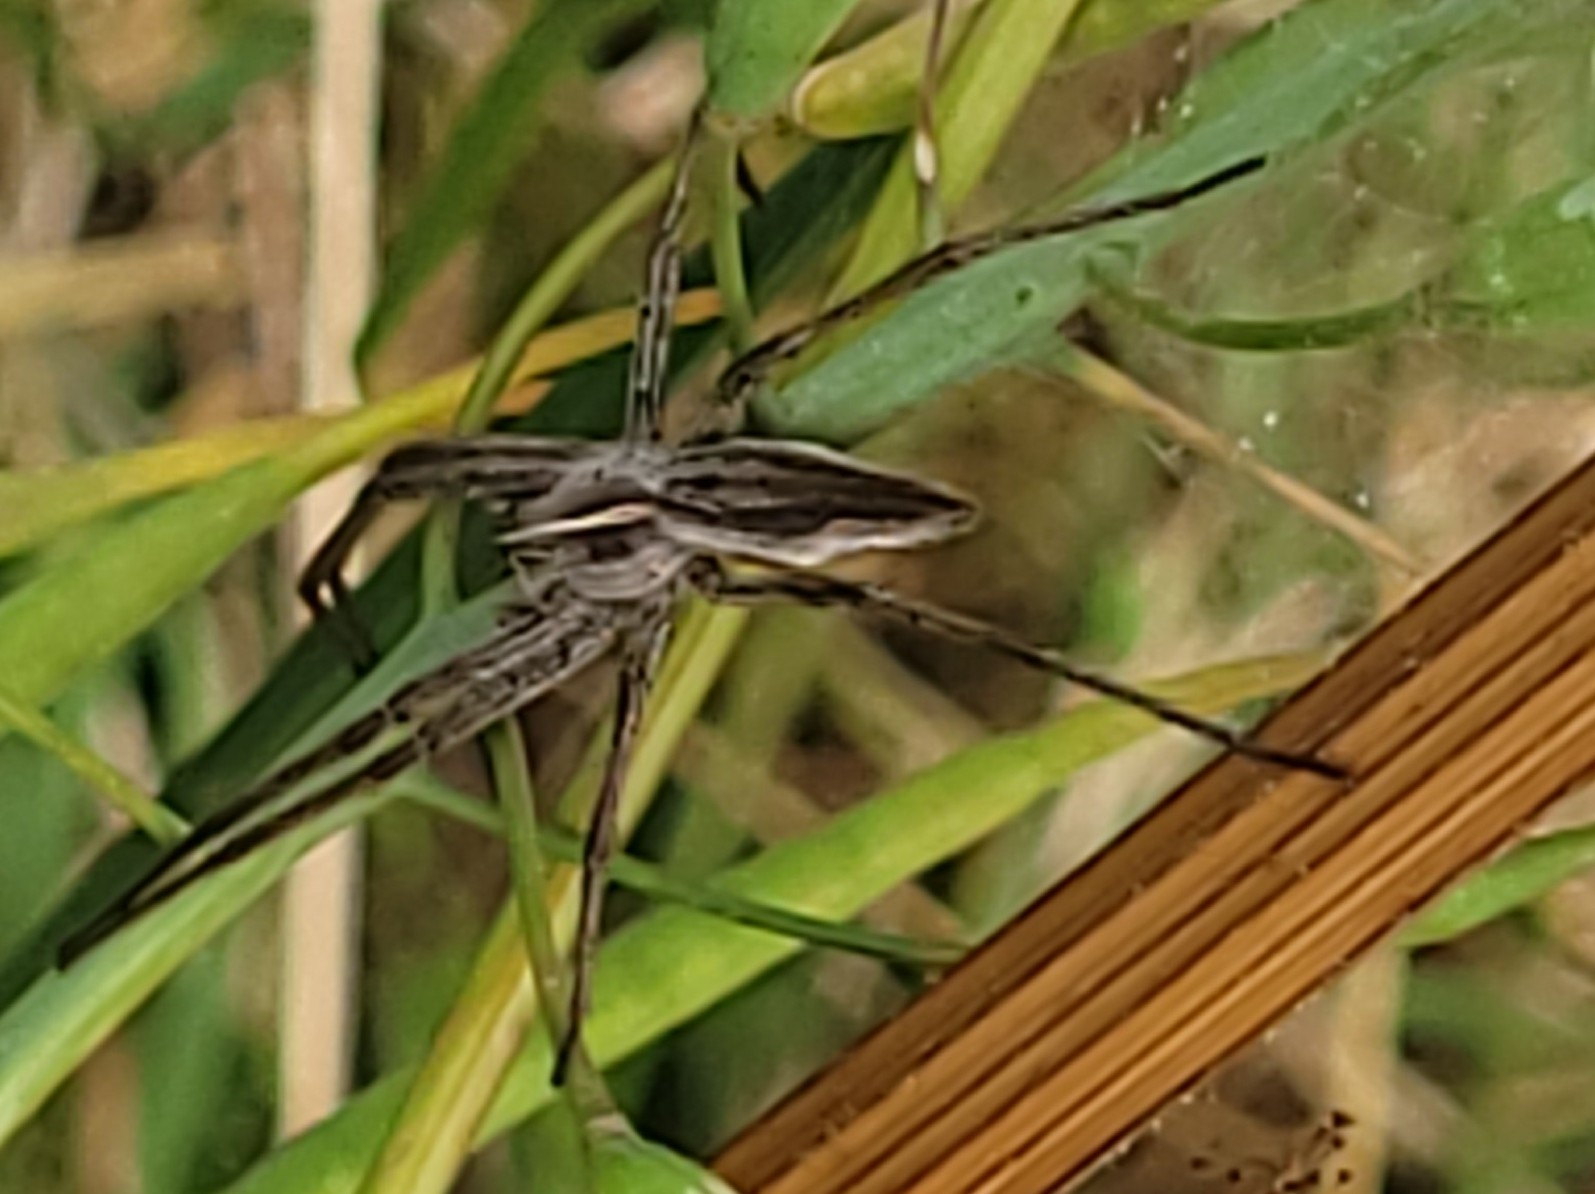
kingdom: Animalia
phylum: Arthropoda
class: Arachnida
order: Araneae
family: Pisauridae
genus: Pisaura
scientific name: Pisaura mirabilis
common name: Tent spider
